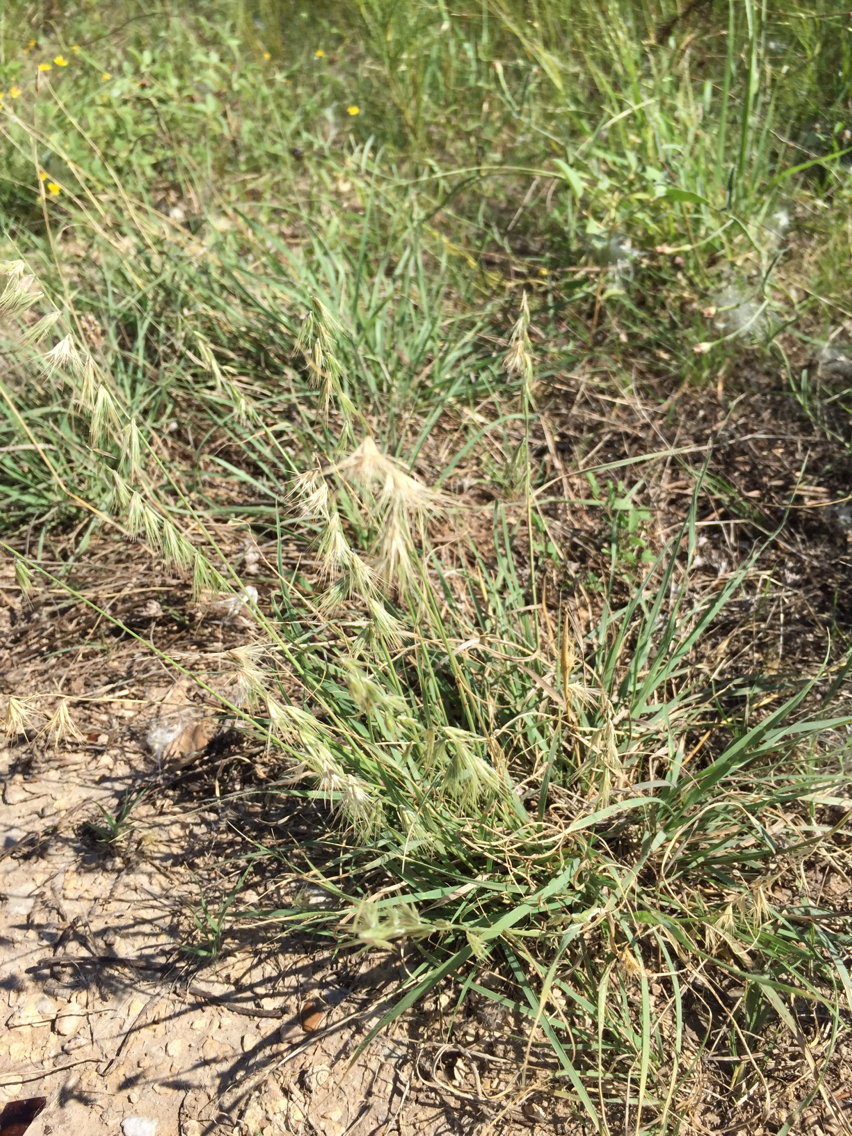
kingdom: Plantae
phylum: Tracheophyta
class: Liliopsida
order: Poales
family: Poaceae
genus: Bouteloua
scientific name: Bouteloua rigidiseta
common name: Texas grama
